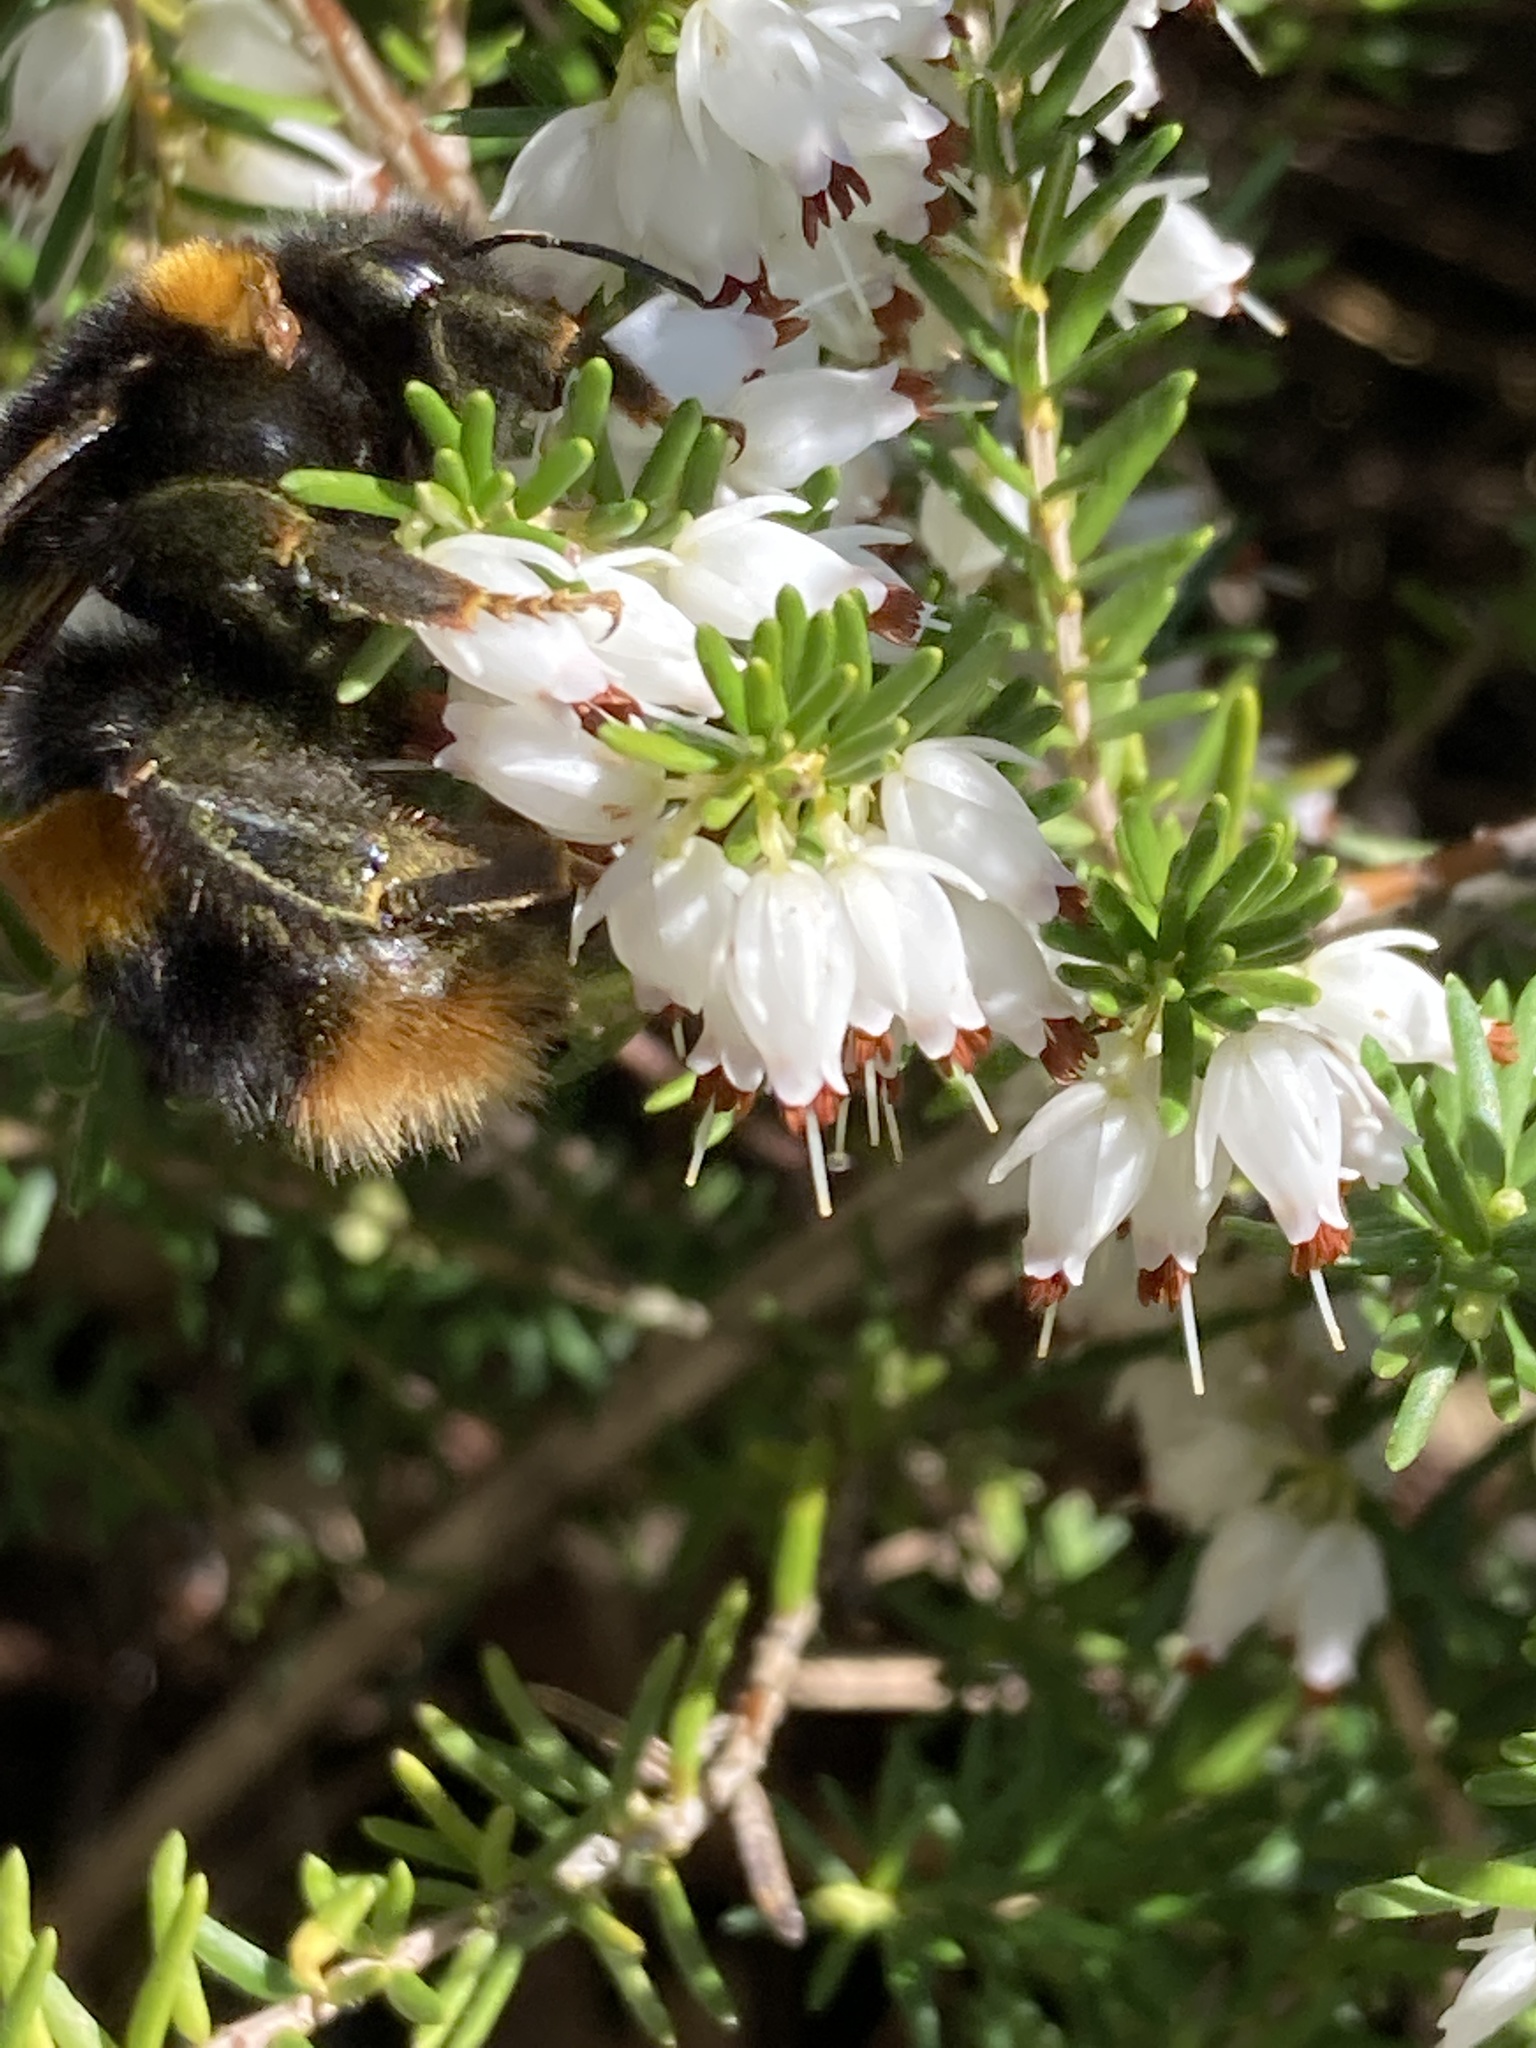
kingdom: Animalia
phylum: Arthropoda
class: Insecta
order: Hymenoptera
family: Apidae
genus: Bombus
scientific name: Bombus terrestris
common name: Buff-tailed bumblebee
